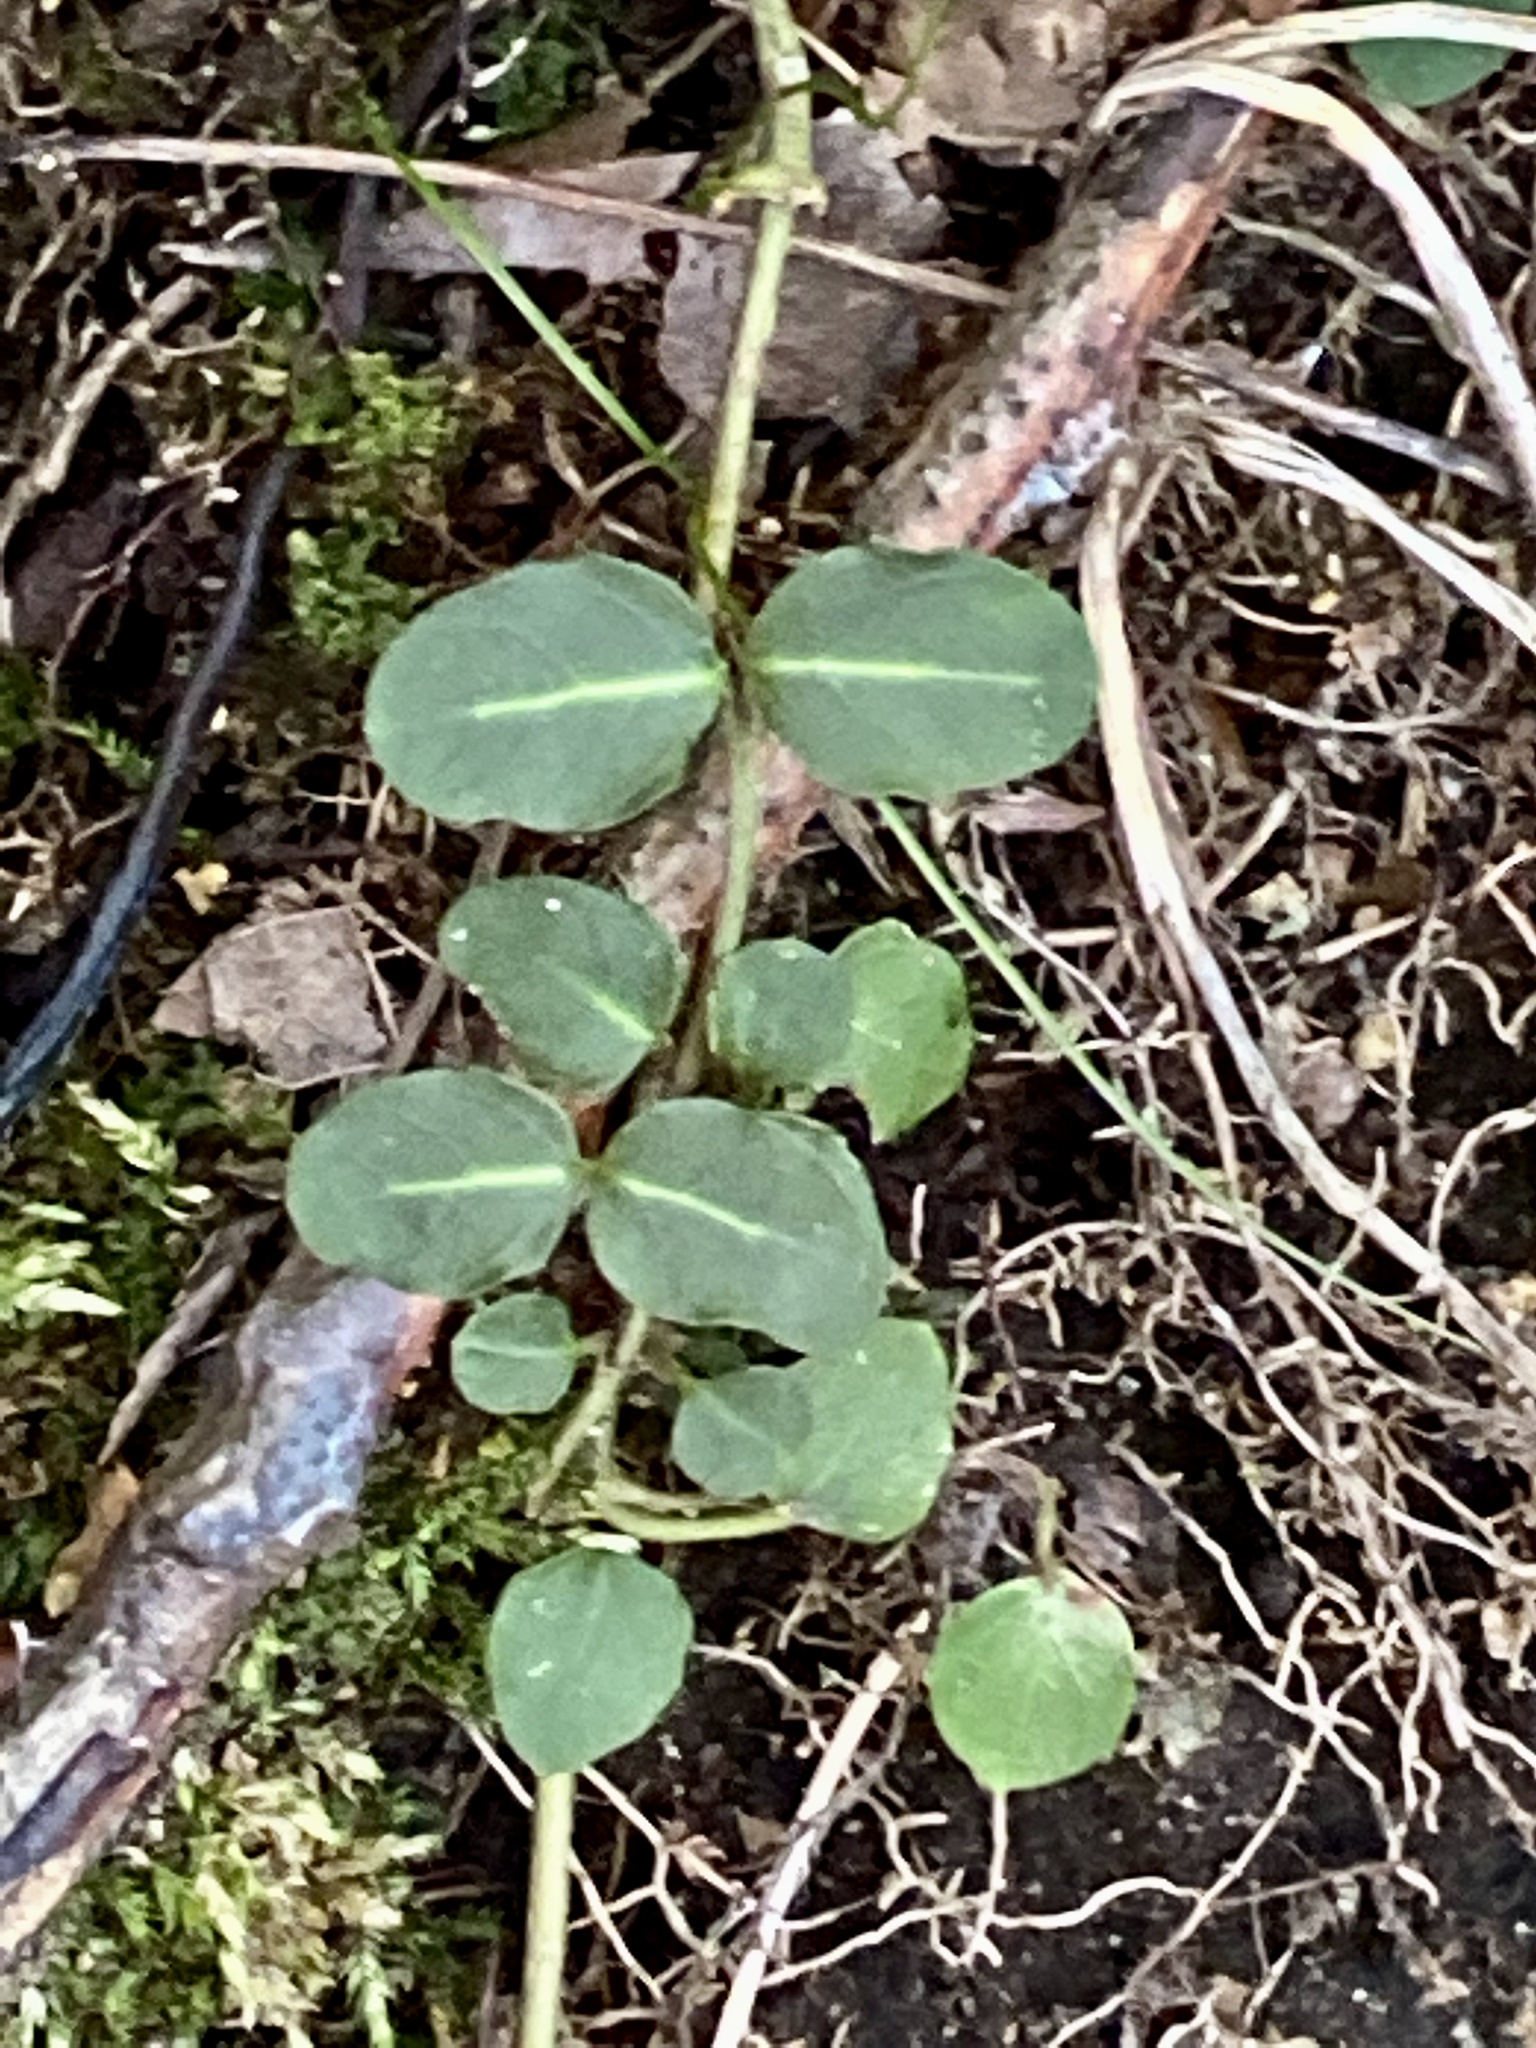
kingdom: Plantae
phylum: Tracheophyta
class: Magnoliopsida
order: Gentianales
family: Rubiaceae
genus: Mitchella
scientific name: Mitchella repens
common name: Partridge-berry
